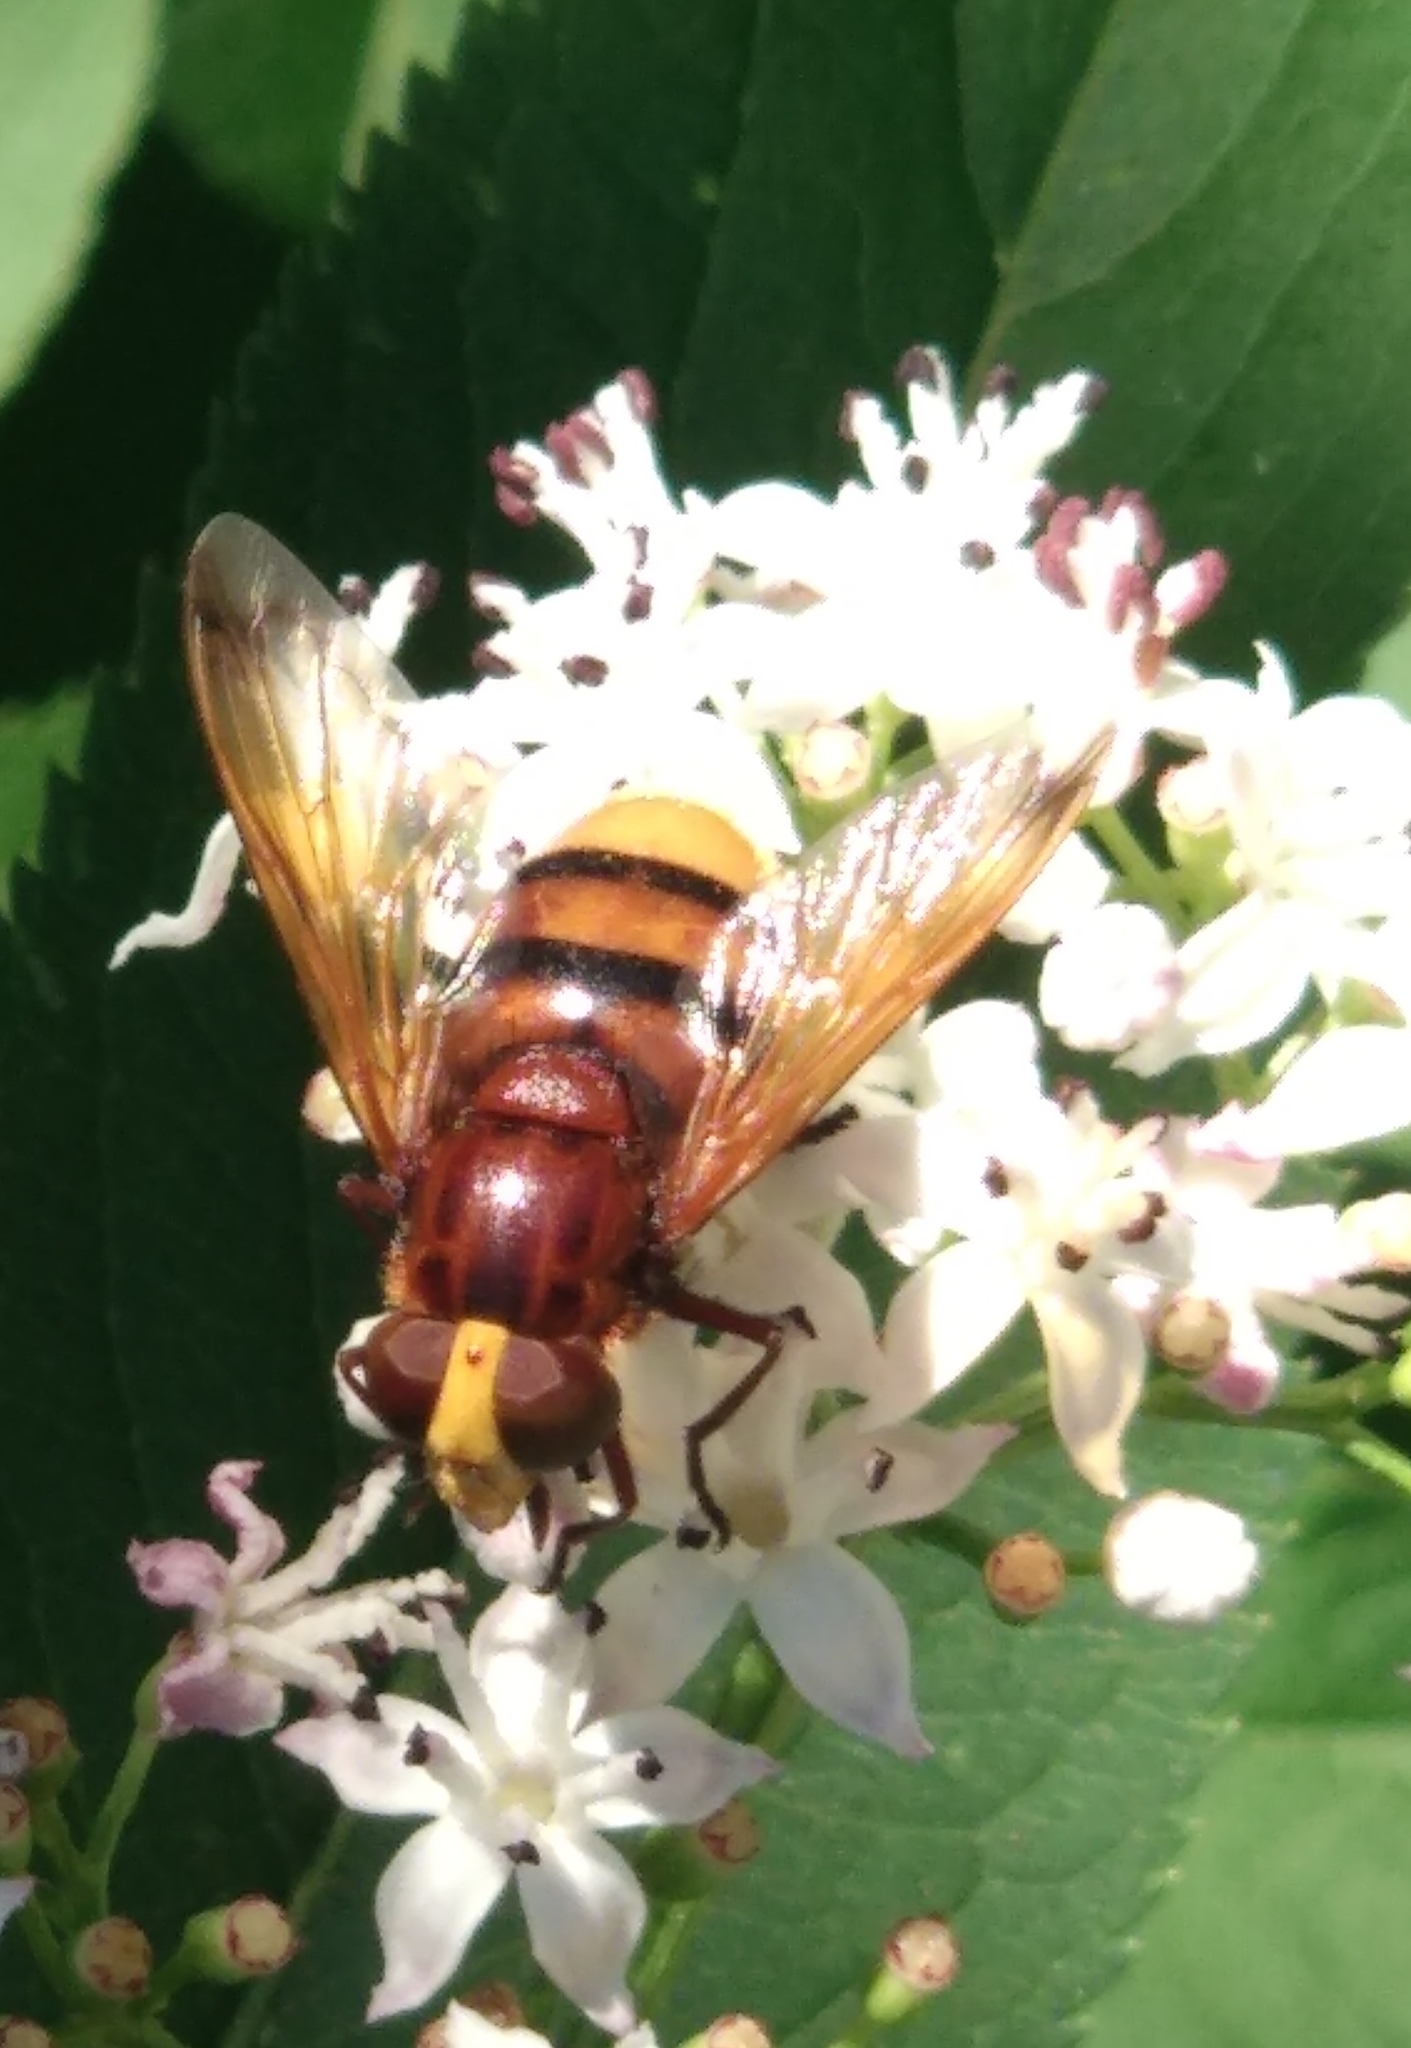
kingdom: Animalia
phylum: Arthropoda
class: Insecta
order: Diptera
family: Syrphidae
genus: Volucella
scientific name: Volucella zonaria
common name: Hornet hoverfly
